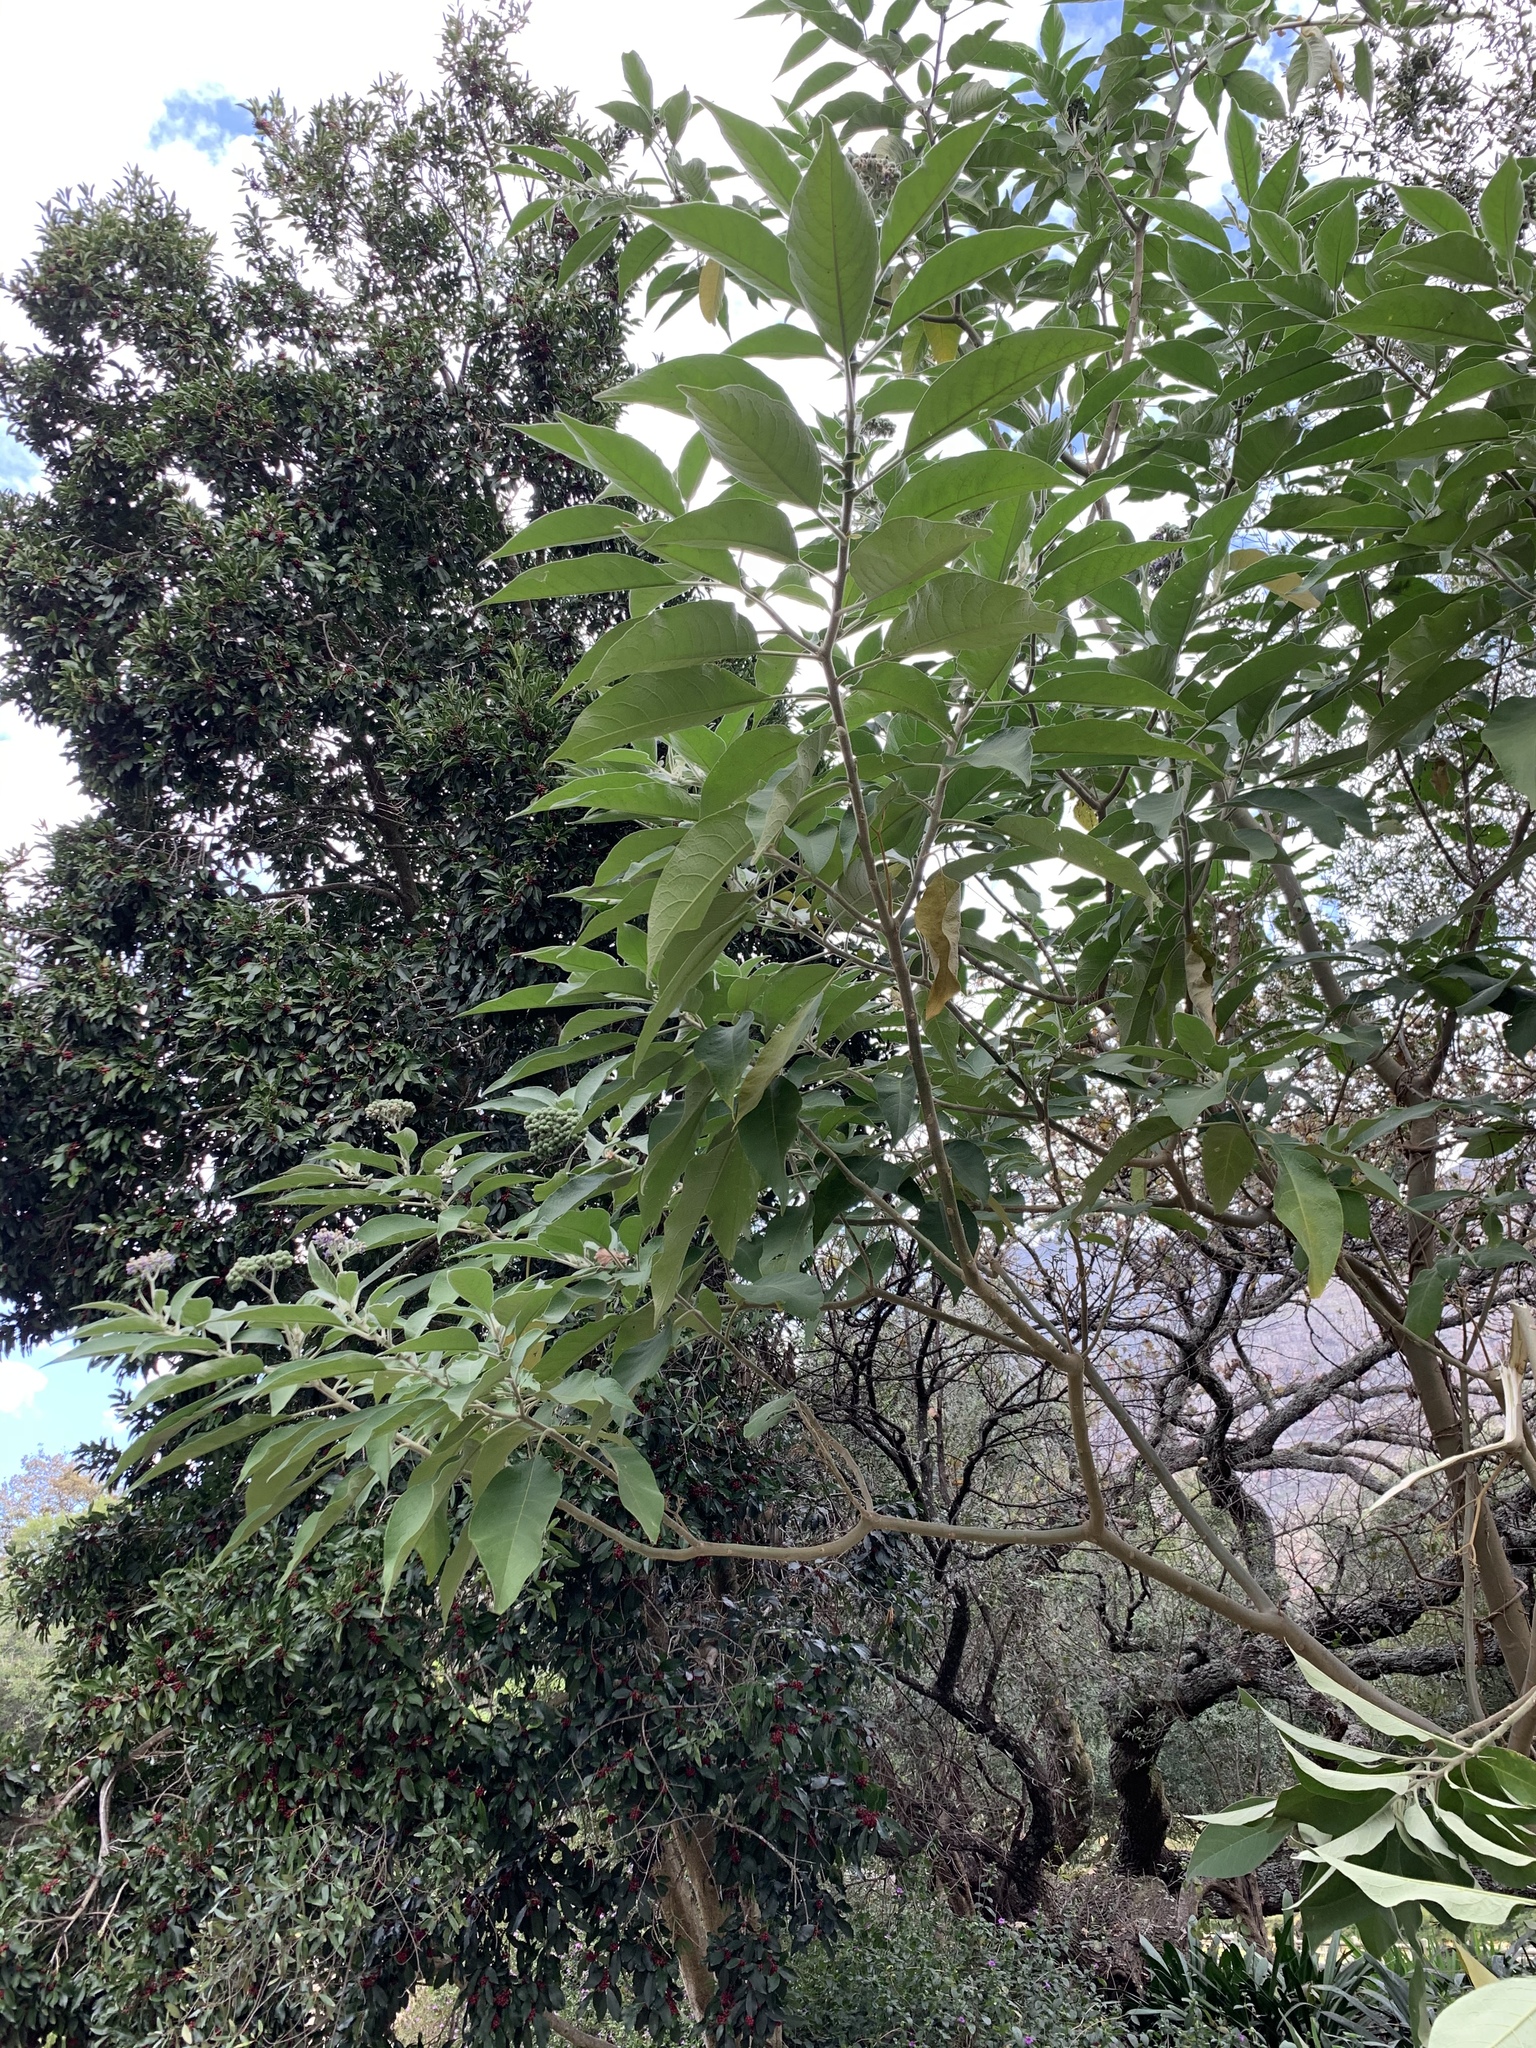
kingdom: Plantae
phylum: Tracheophyta
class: Magnoliopsida
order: Solanales
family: Solanaceae
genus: Solanum
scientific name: Solanum mauritianum
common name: Earleaf nightshade
